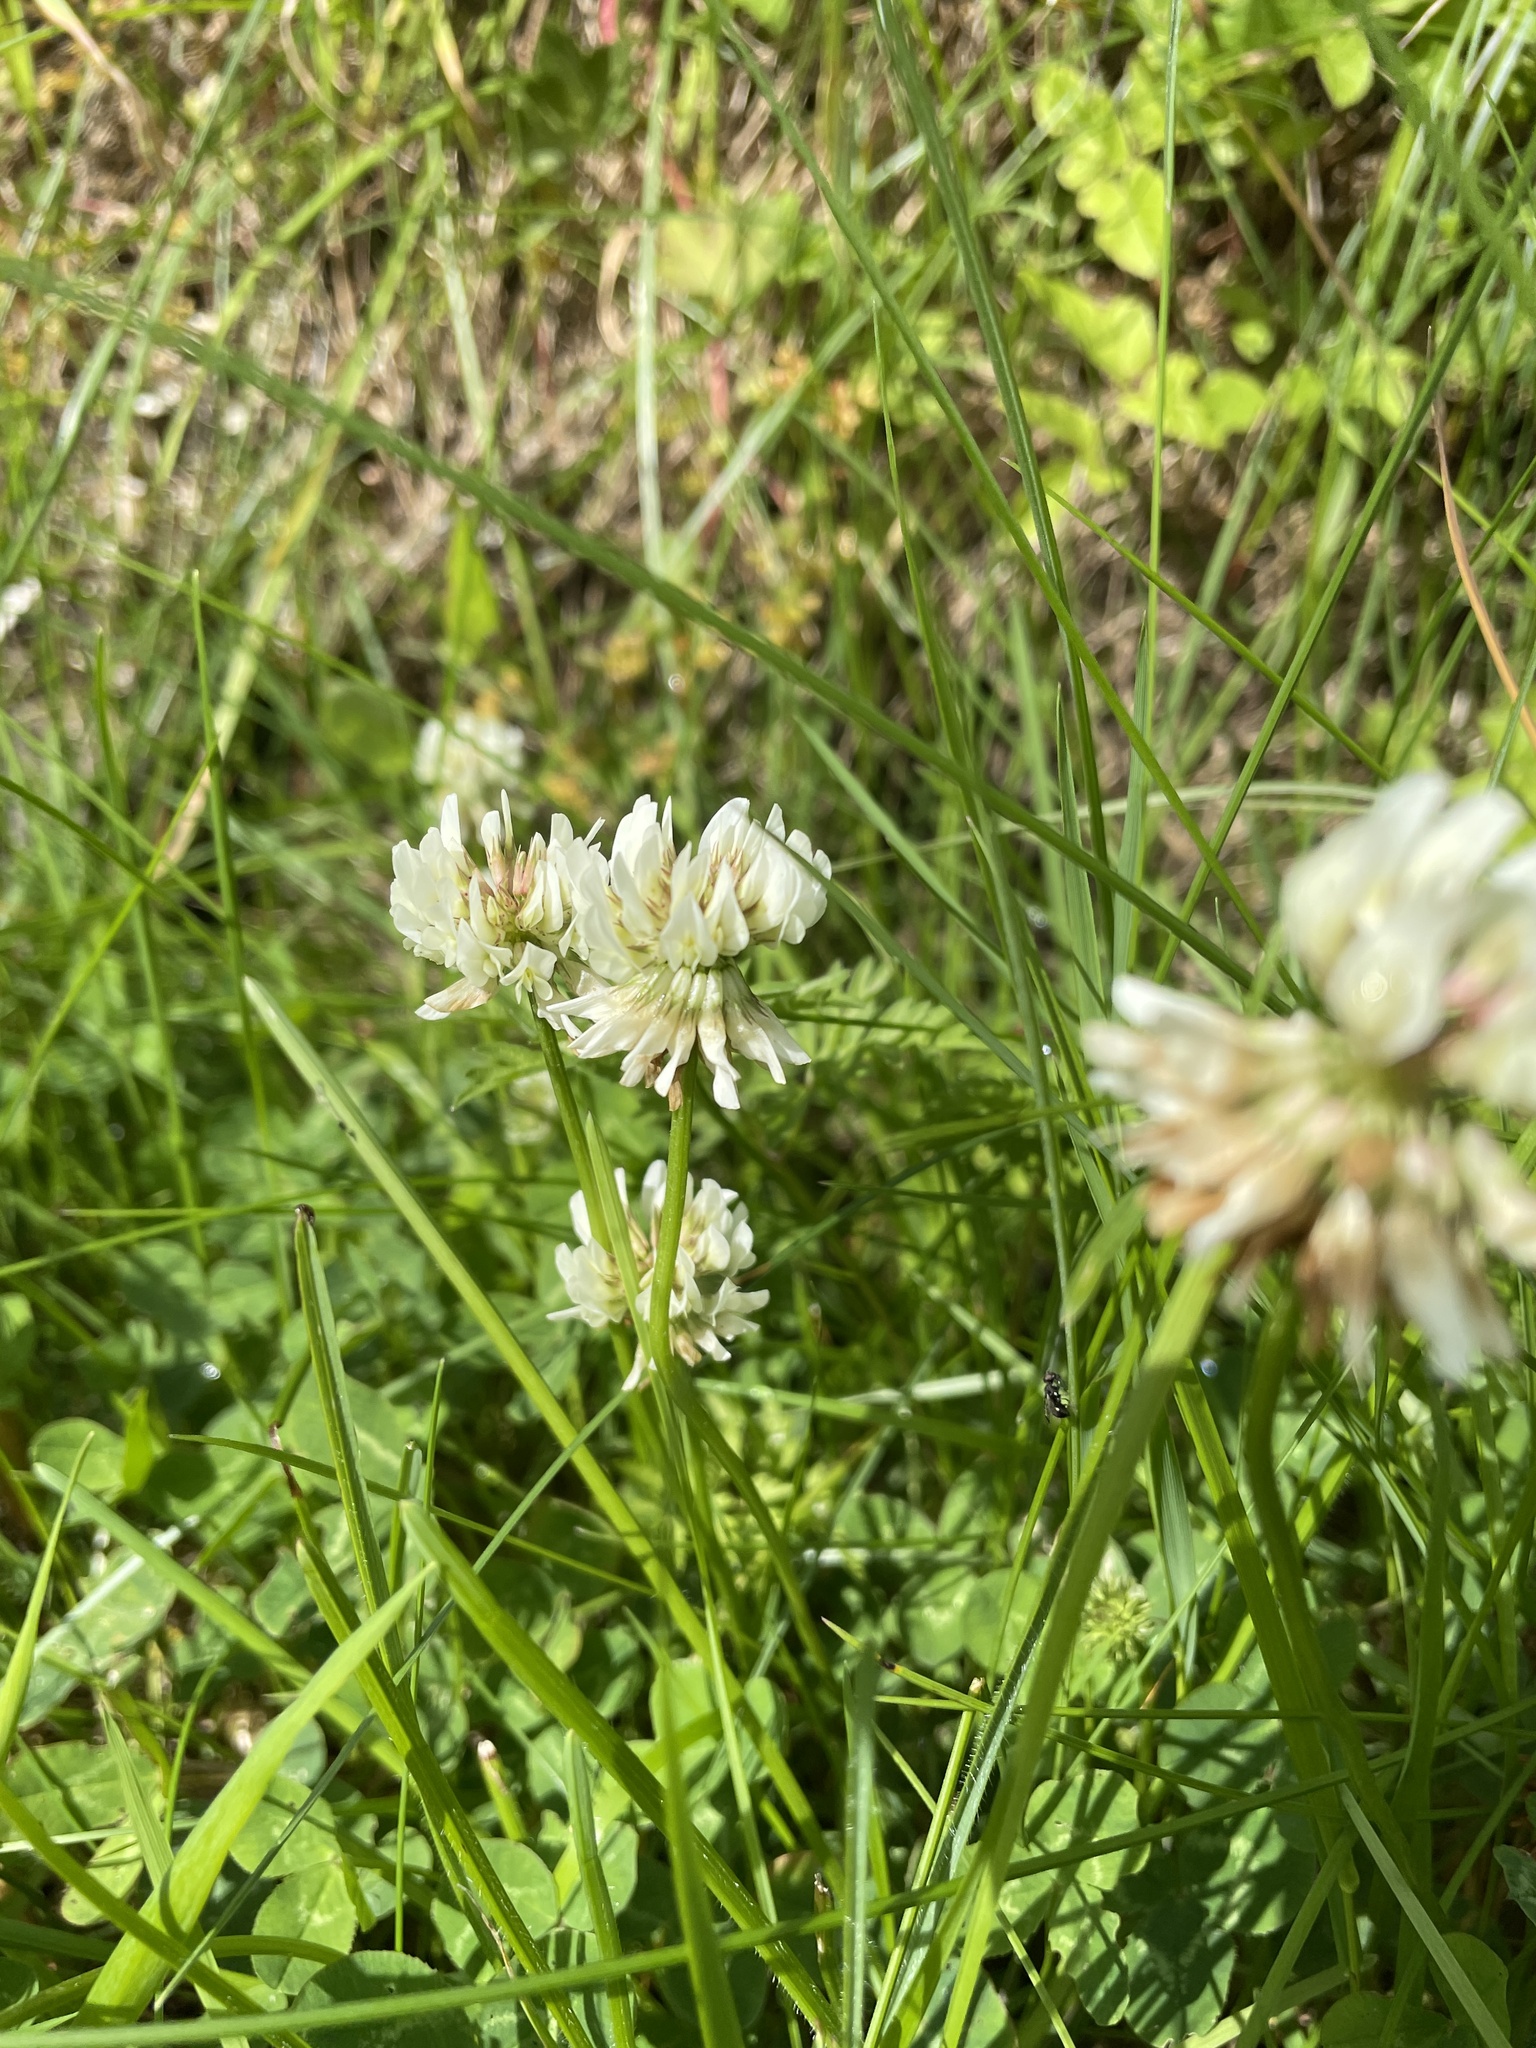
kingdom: Plantae
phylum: Tracheophyta
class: Magnoliopsida
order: Fabales
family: Fabaceae
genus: Trifolium
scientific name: Trifolium repens
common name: White clover
